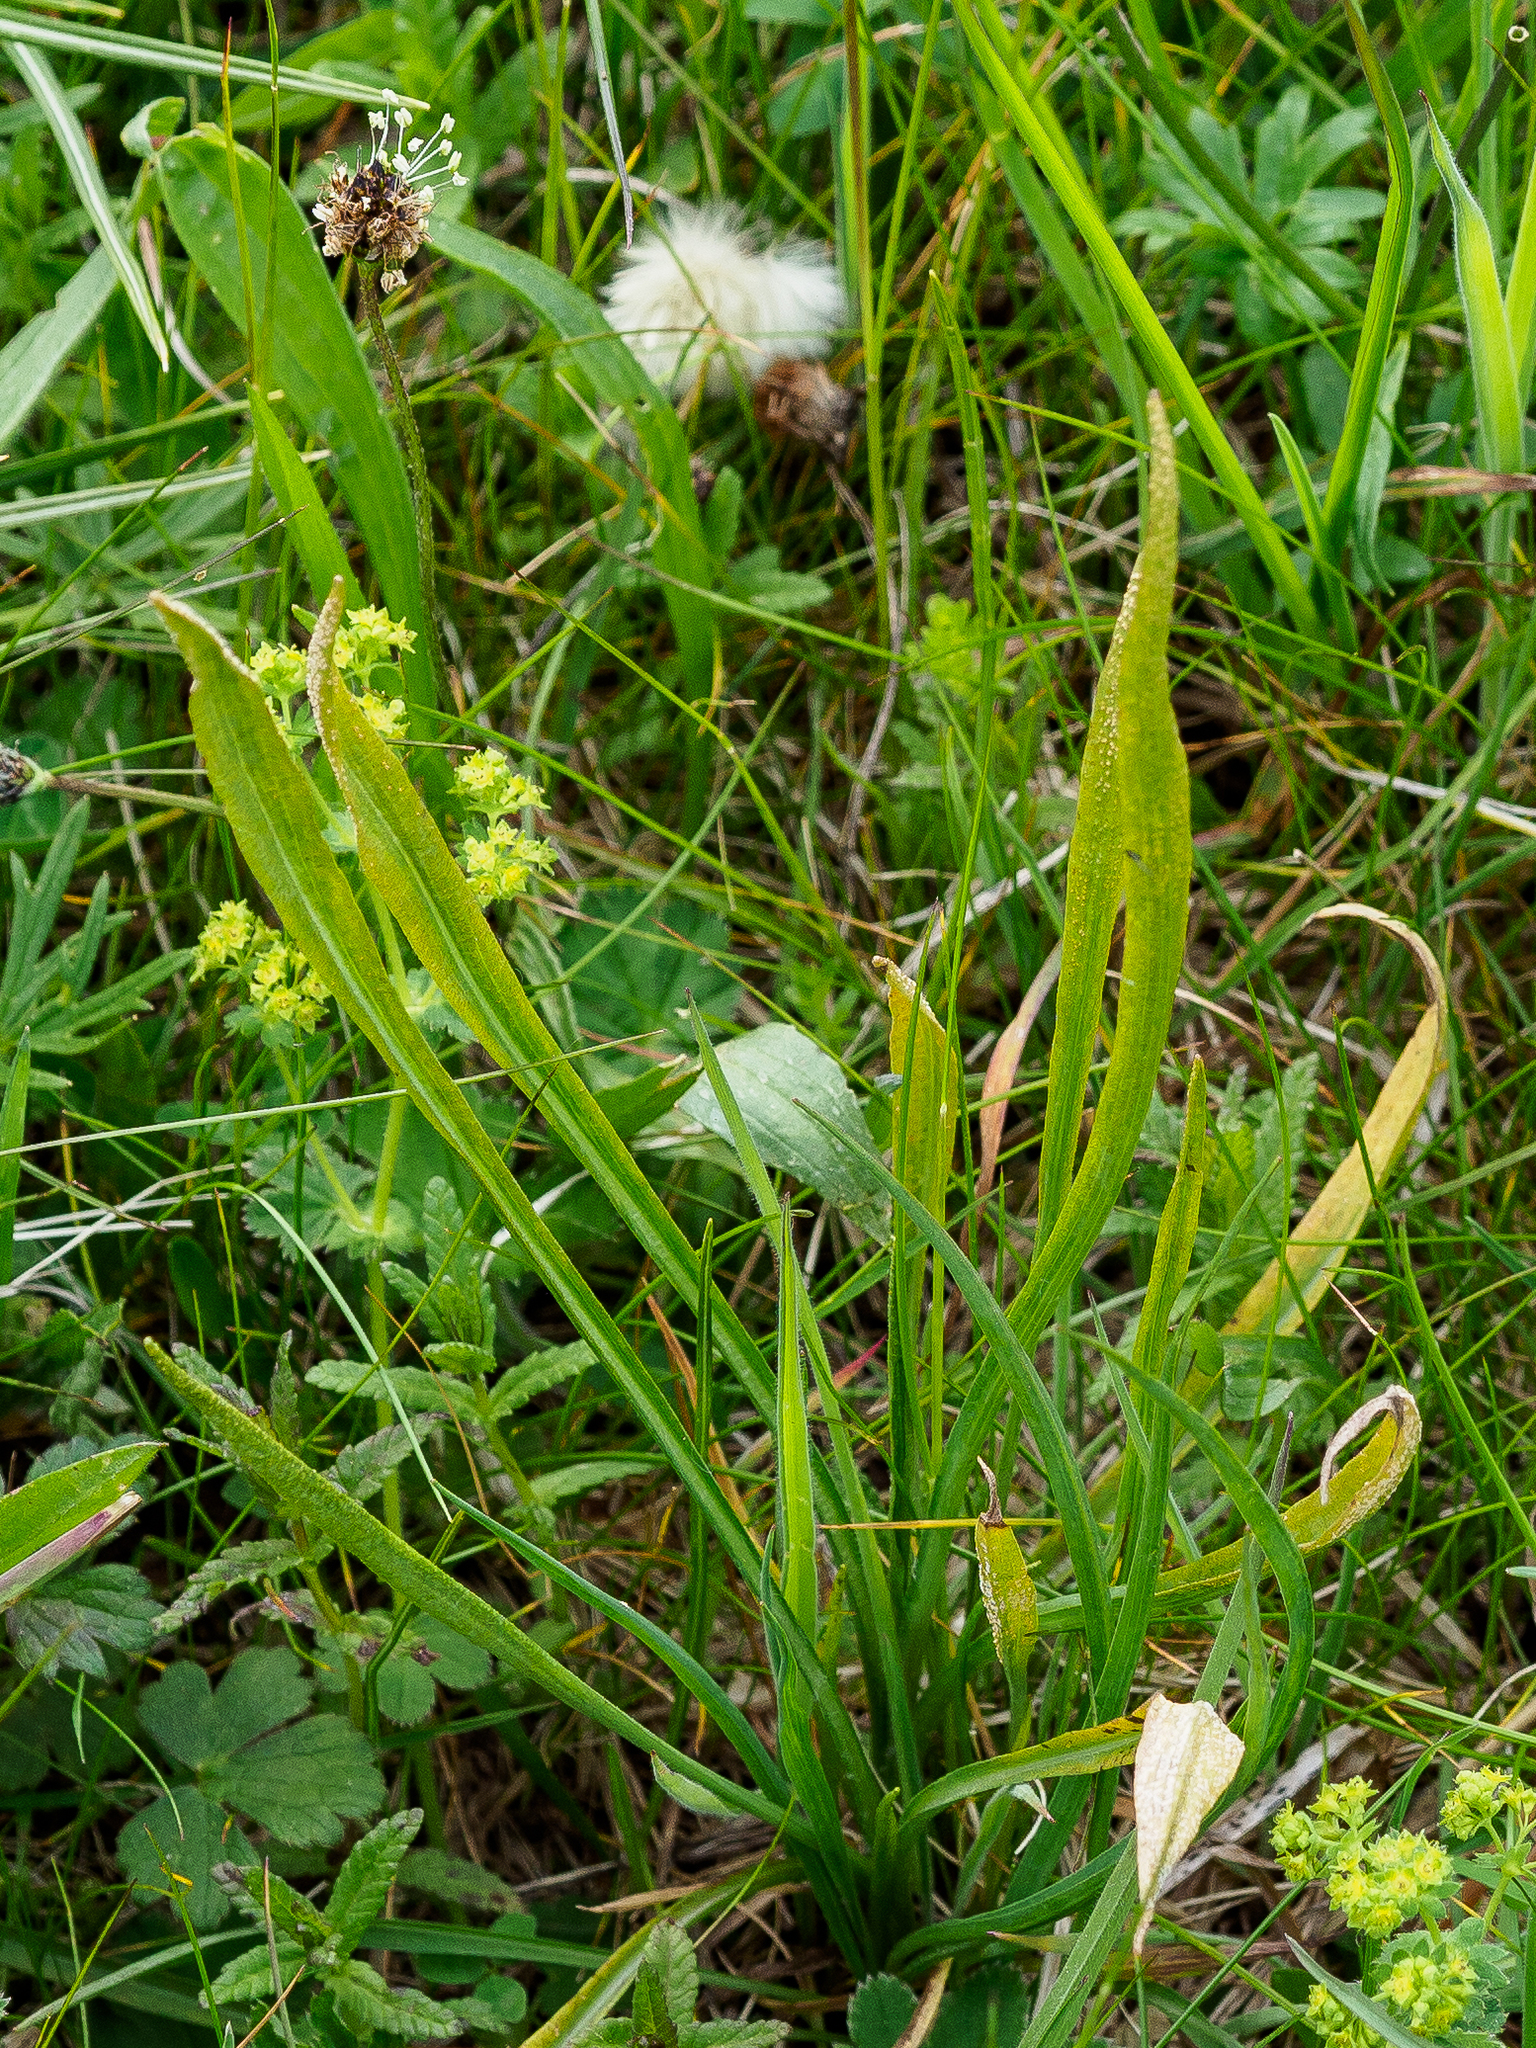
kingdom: Fungi
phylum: Basidiomycota
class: Pucciniomycetes
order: Pucciniales
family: Pucciniaceae
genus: Puccinia
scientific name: Puccinia hysterium
